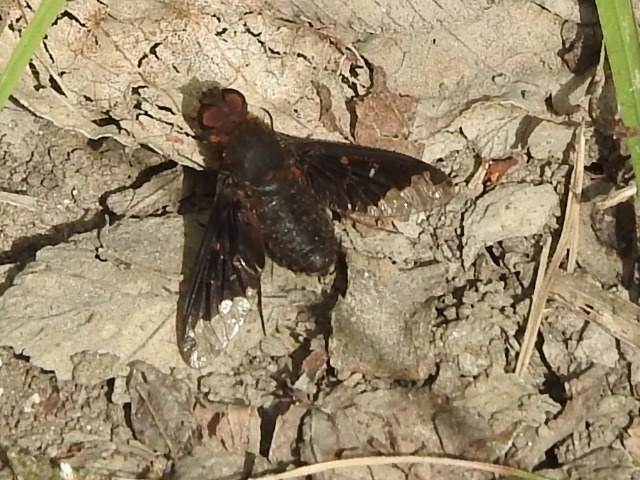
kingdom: Animalia
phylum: Arthropoda
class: Insecta
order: Diptera
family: Bombyliidae
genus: Hemipenthes
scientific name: Hemipenthes sinuosus
